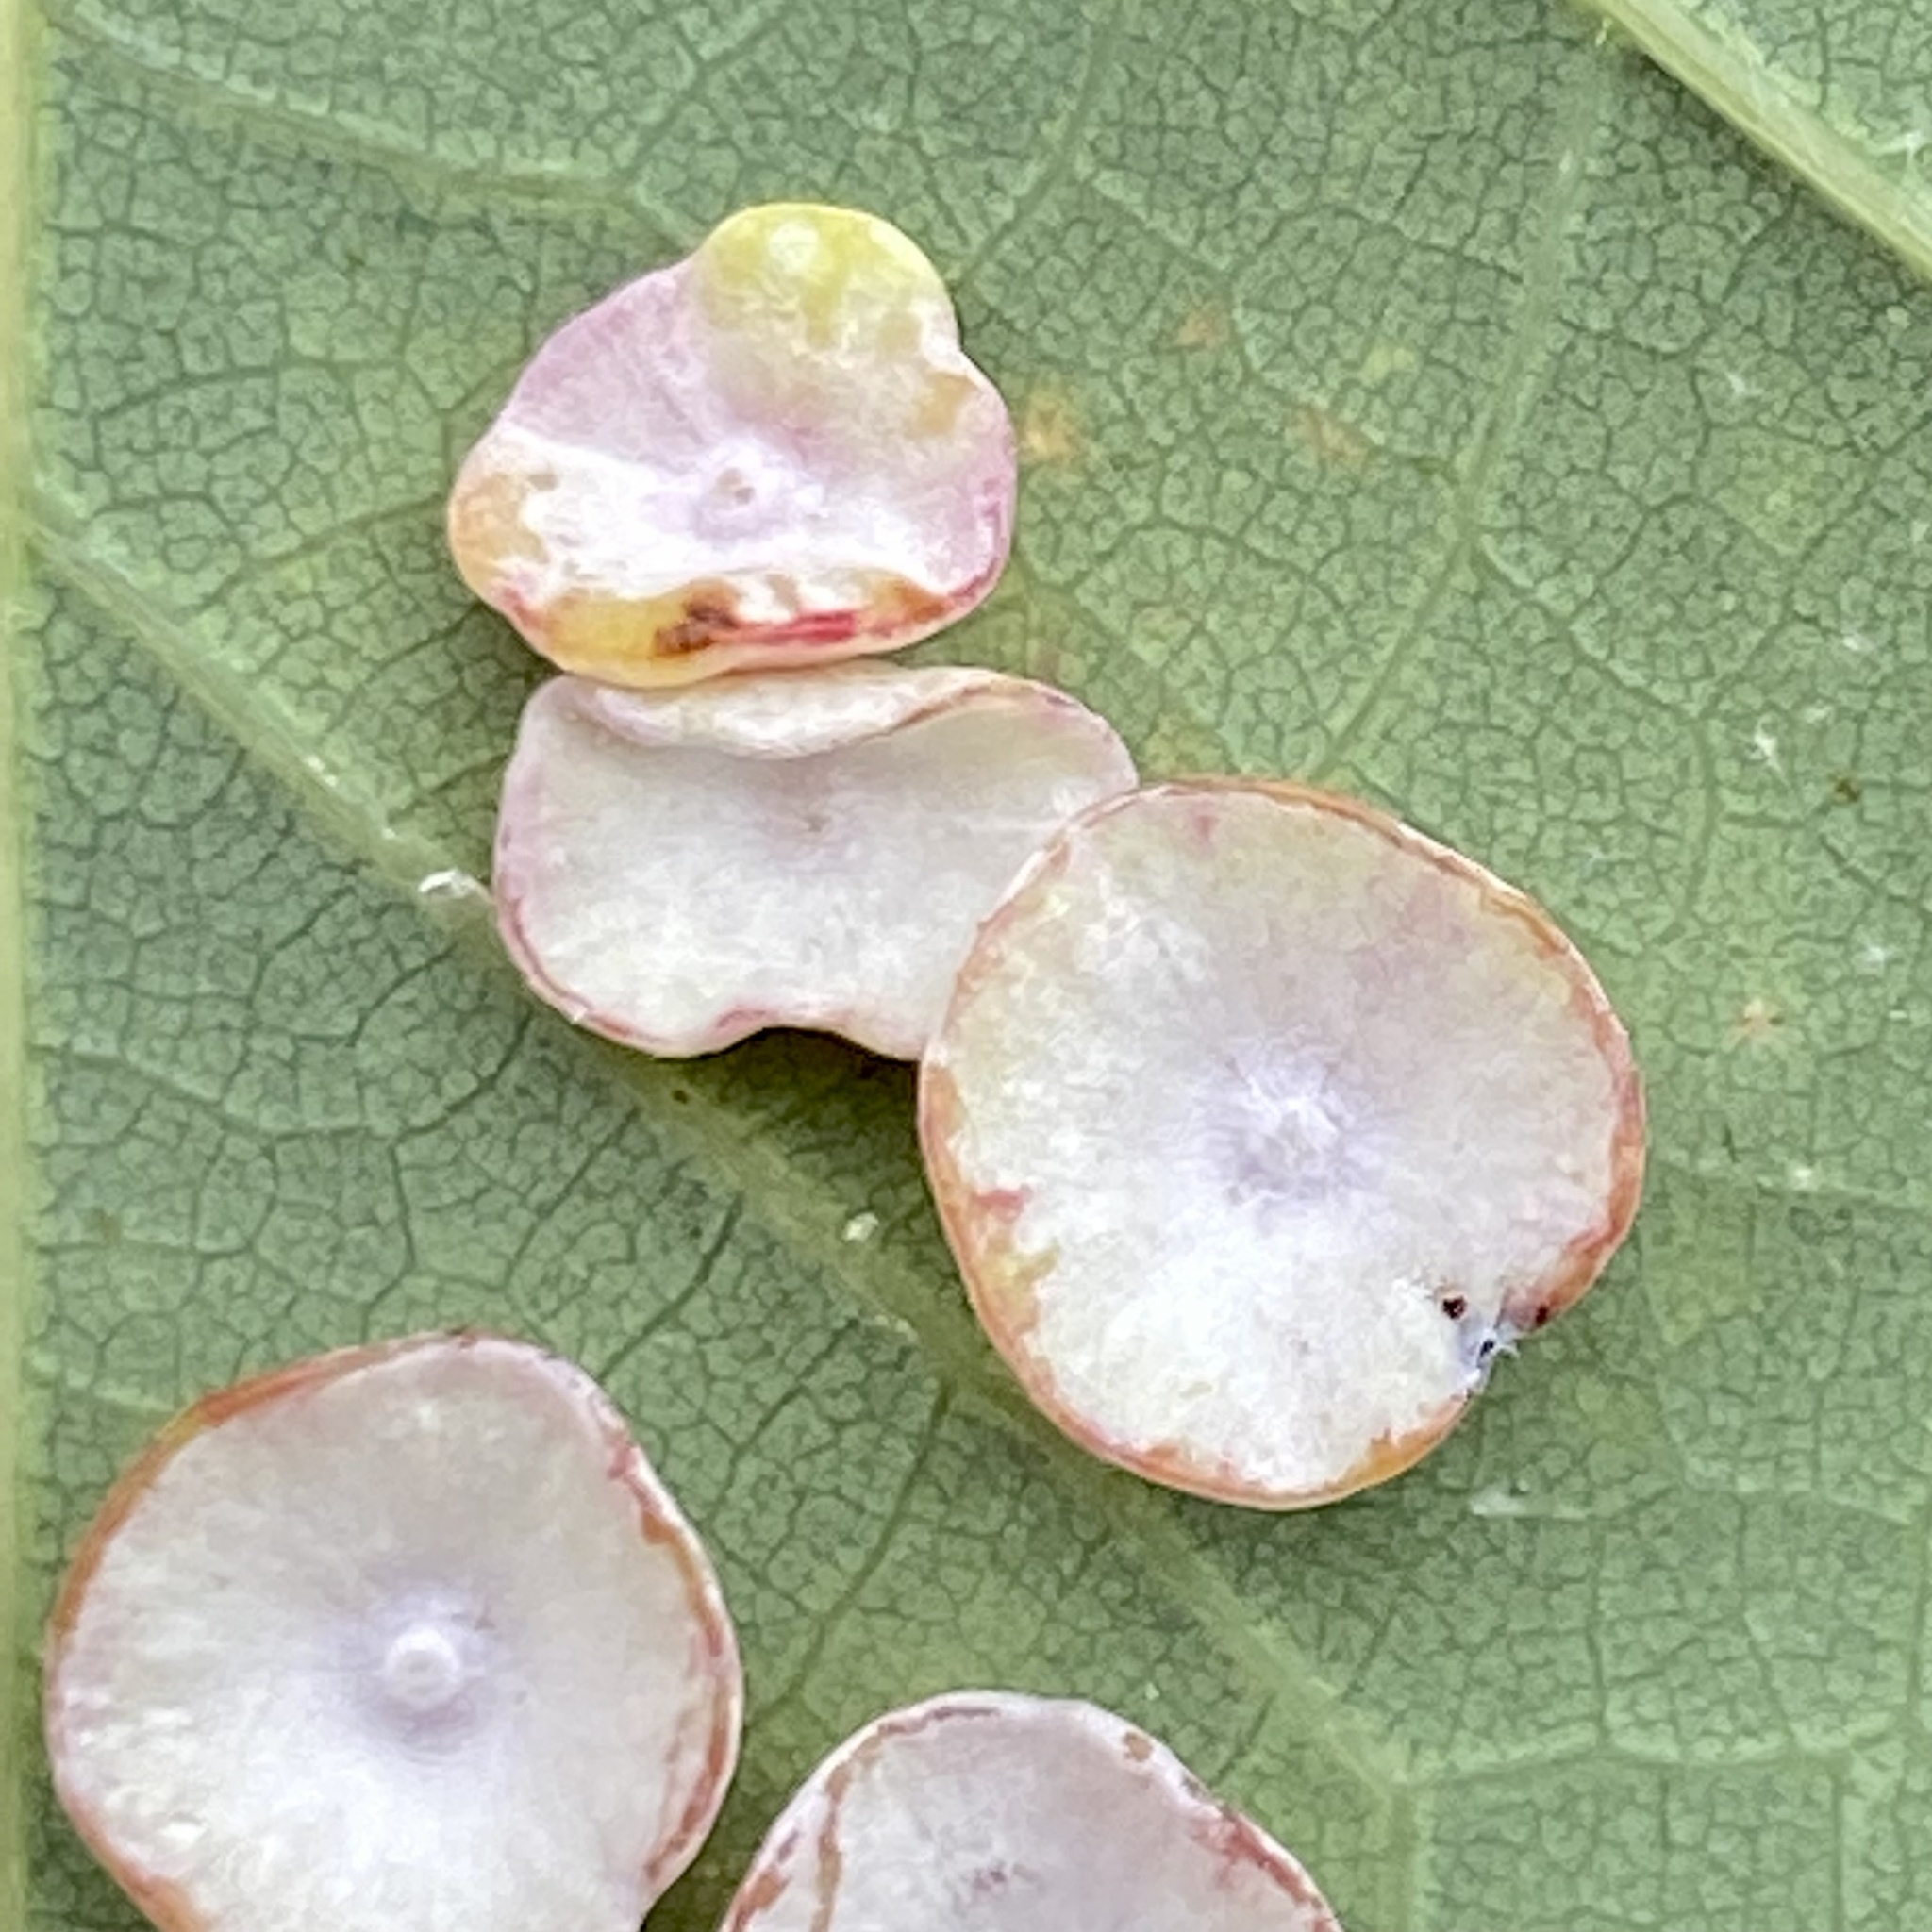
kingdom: Animalia
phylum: Arthropoda
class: Insecta
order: Hymenoptera
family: Cynipidae
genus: Phylloteras
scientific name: Phylloteras poculum
